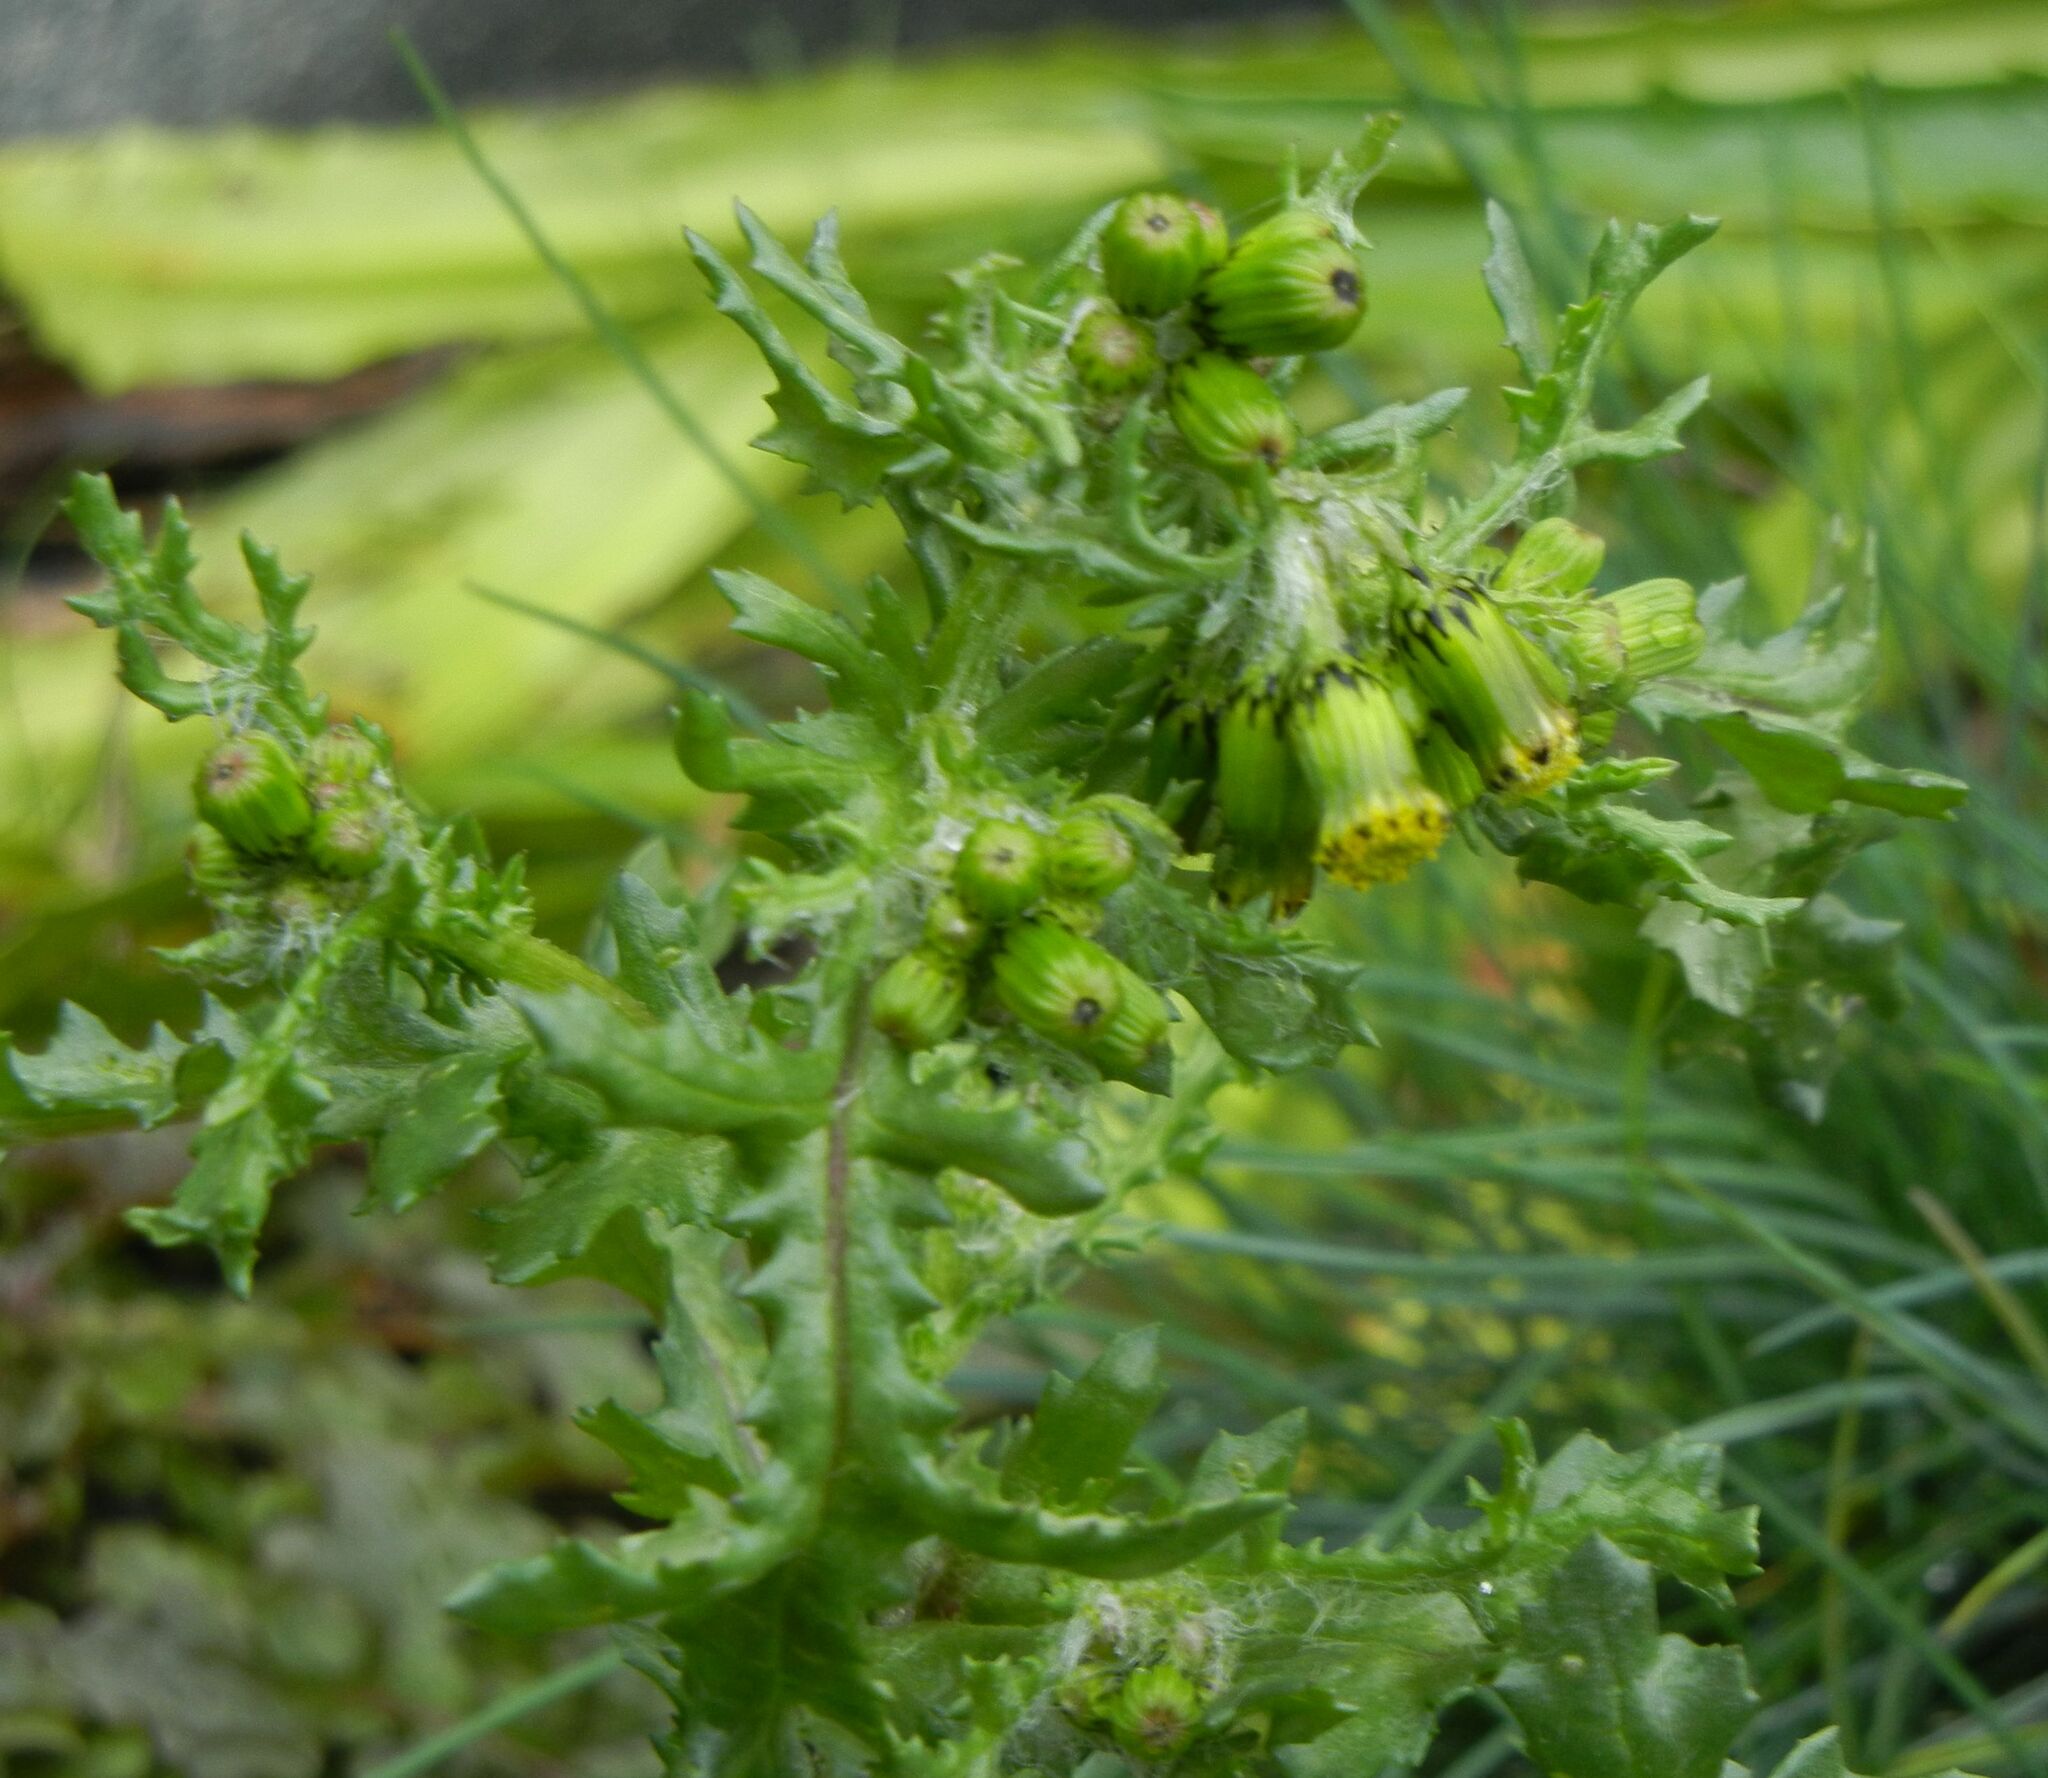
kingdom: Plantae
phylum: Tracheophyta
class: Magnoliopsida
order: Asterales
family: Asteraceae
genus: Senecio
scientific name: Senecio vulgaris
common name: Old-man-in-the-spring
